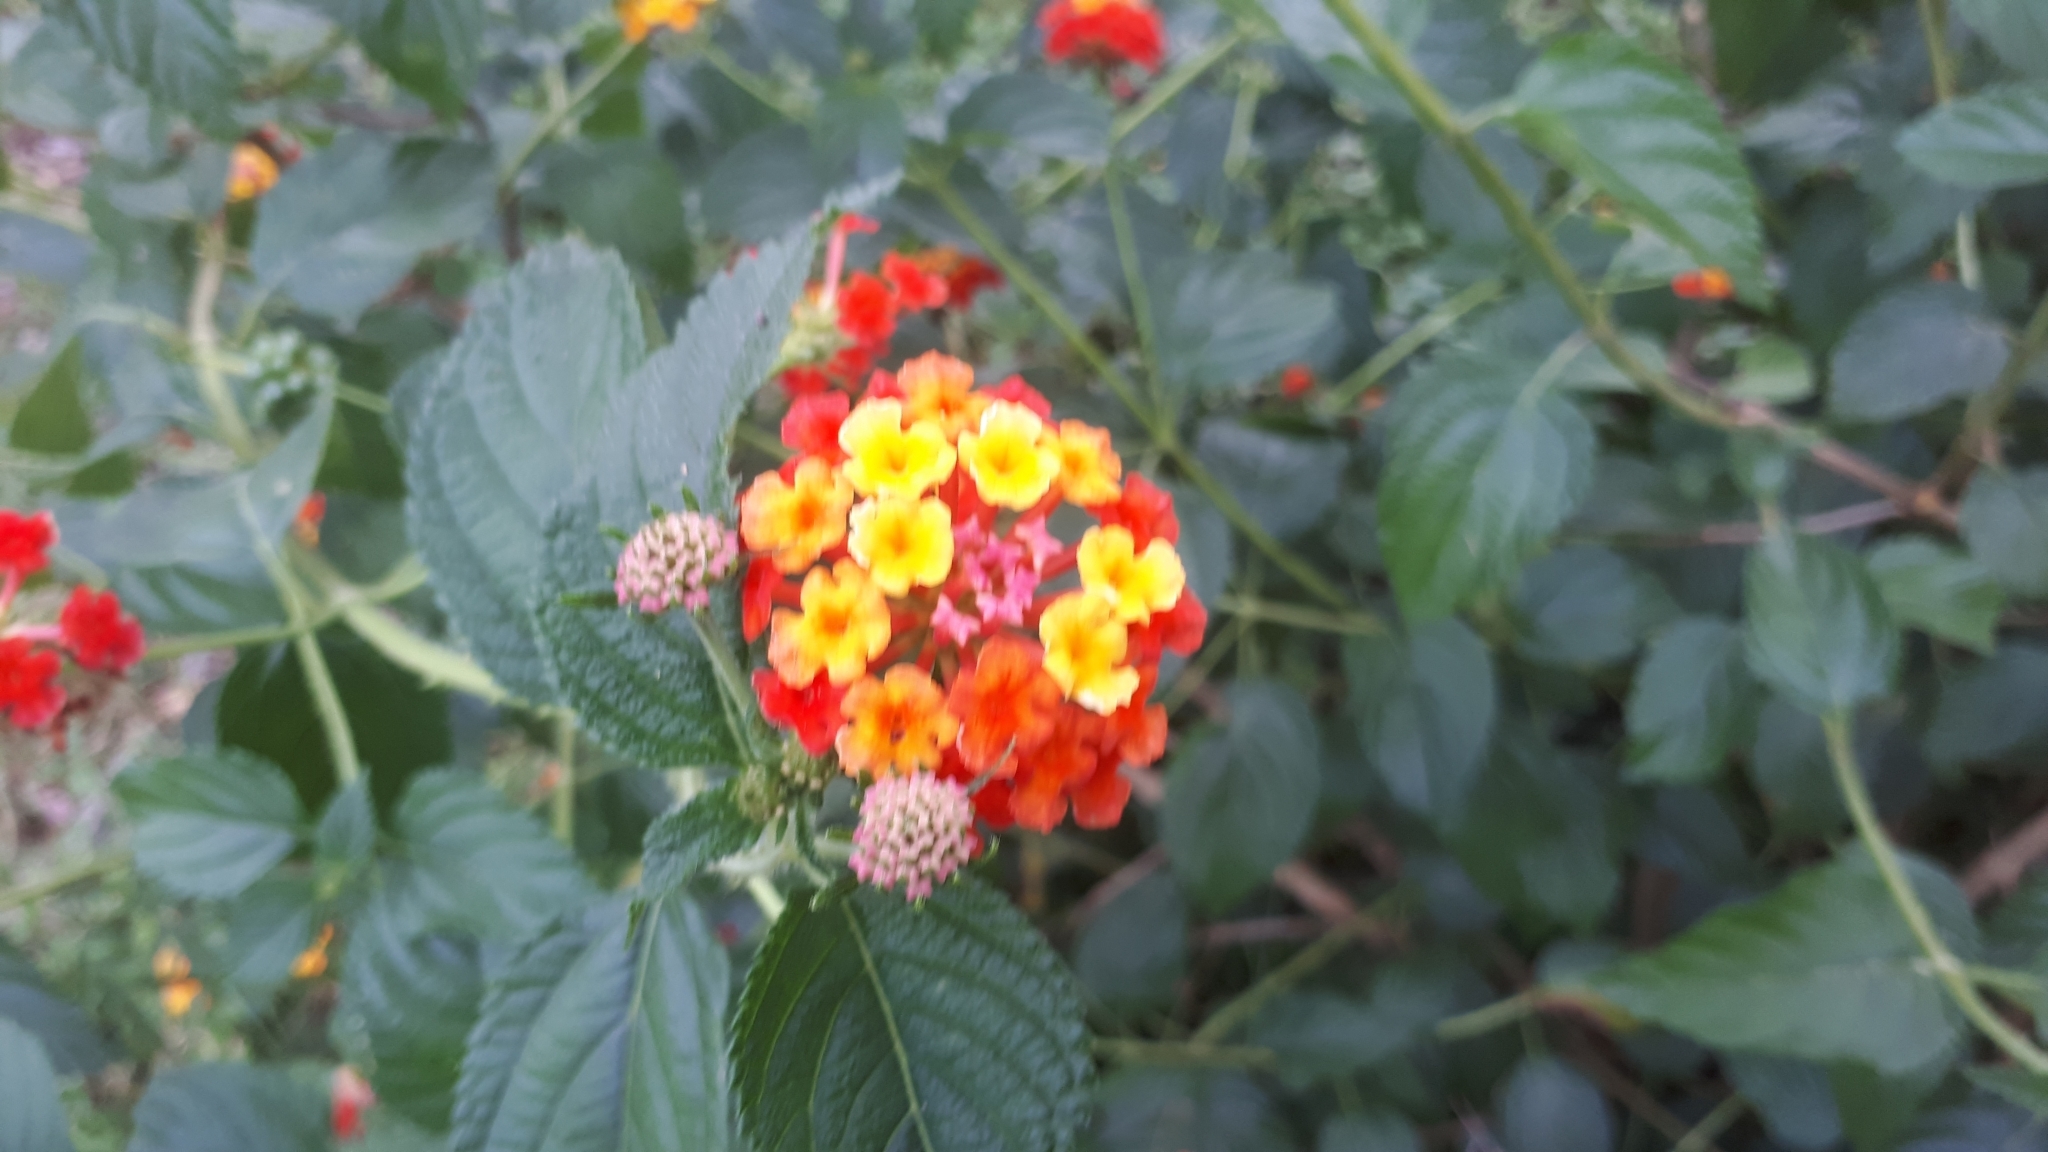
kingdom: Plantae
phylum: Tracheophyta
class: Magnoliopsida
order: Lamiales
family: Verbenaceae
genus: Lantana
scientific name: Lantana camara
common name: Lantana
